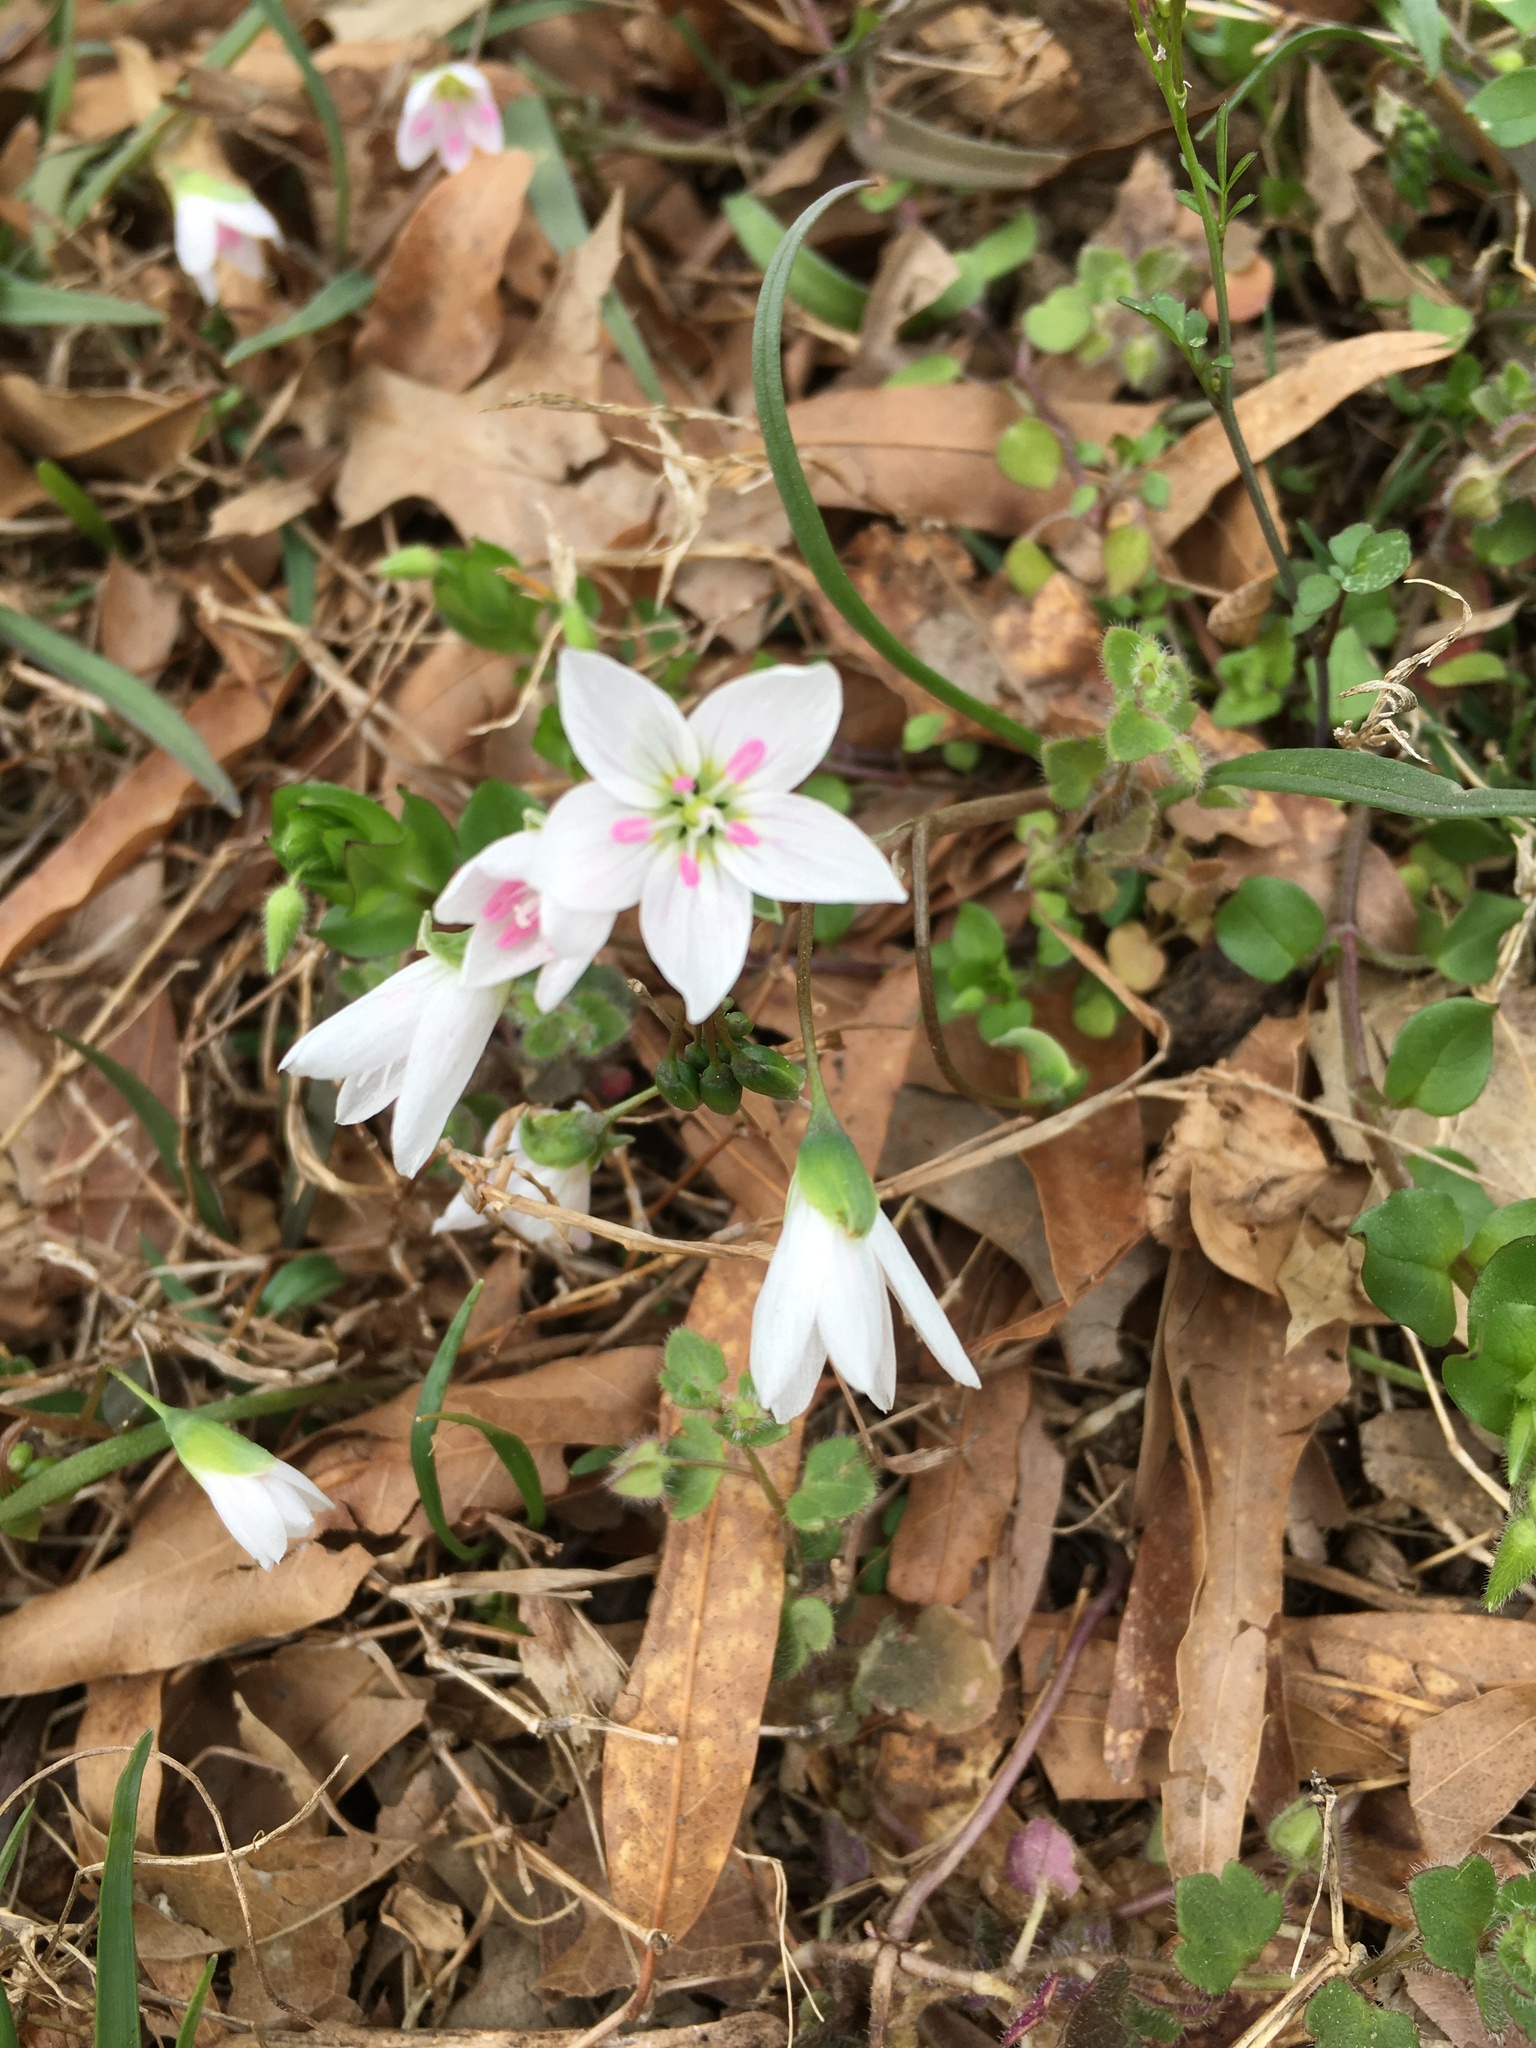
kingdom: Plantae
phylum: Tracheophyta
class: Magnoliopsida
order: Caryophyllales
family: Montiaceae
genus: Claytonia
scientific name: Claytonia virginica
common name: Virginia springbeauty
